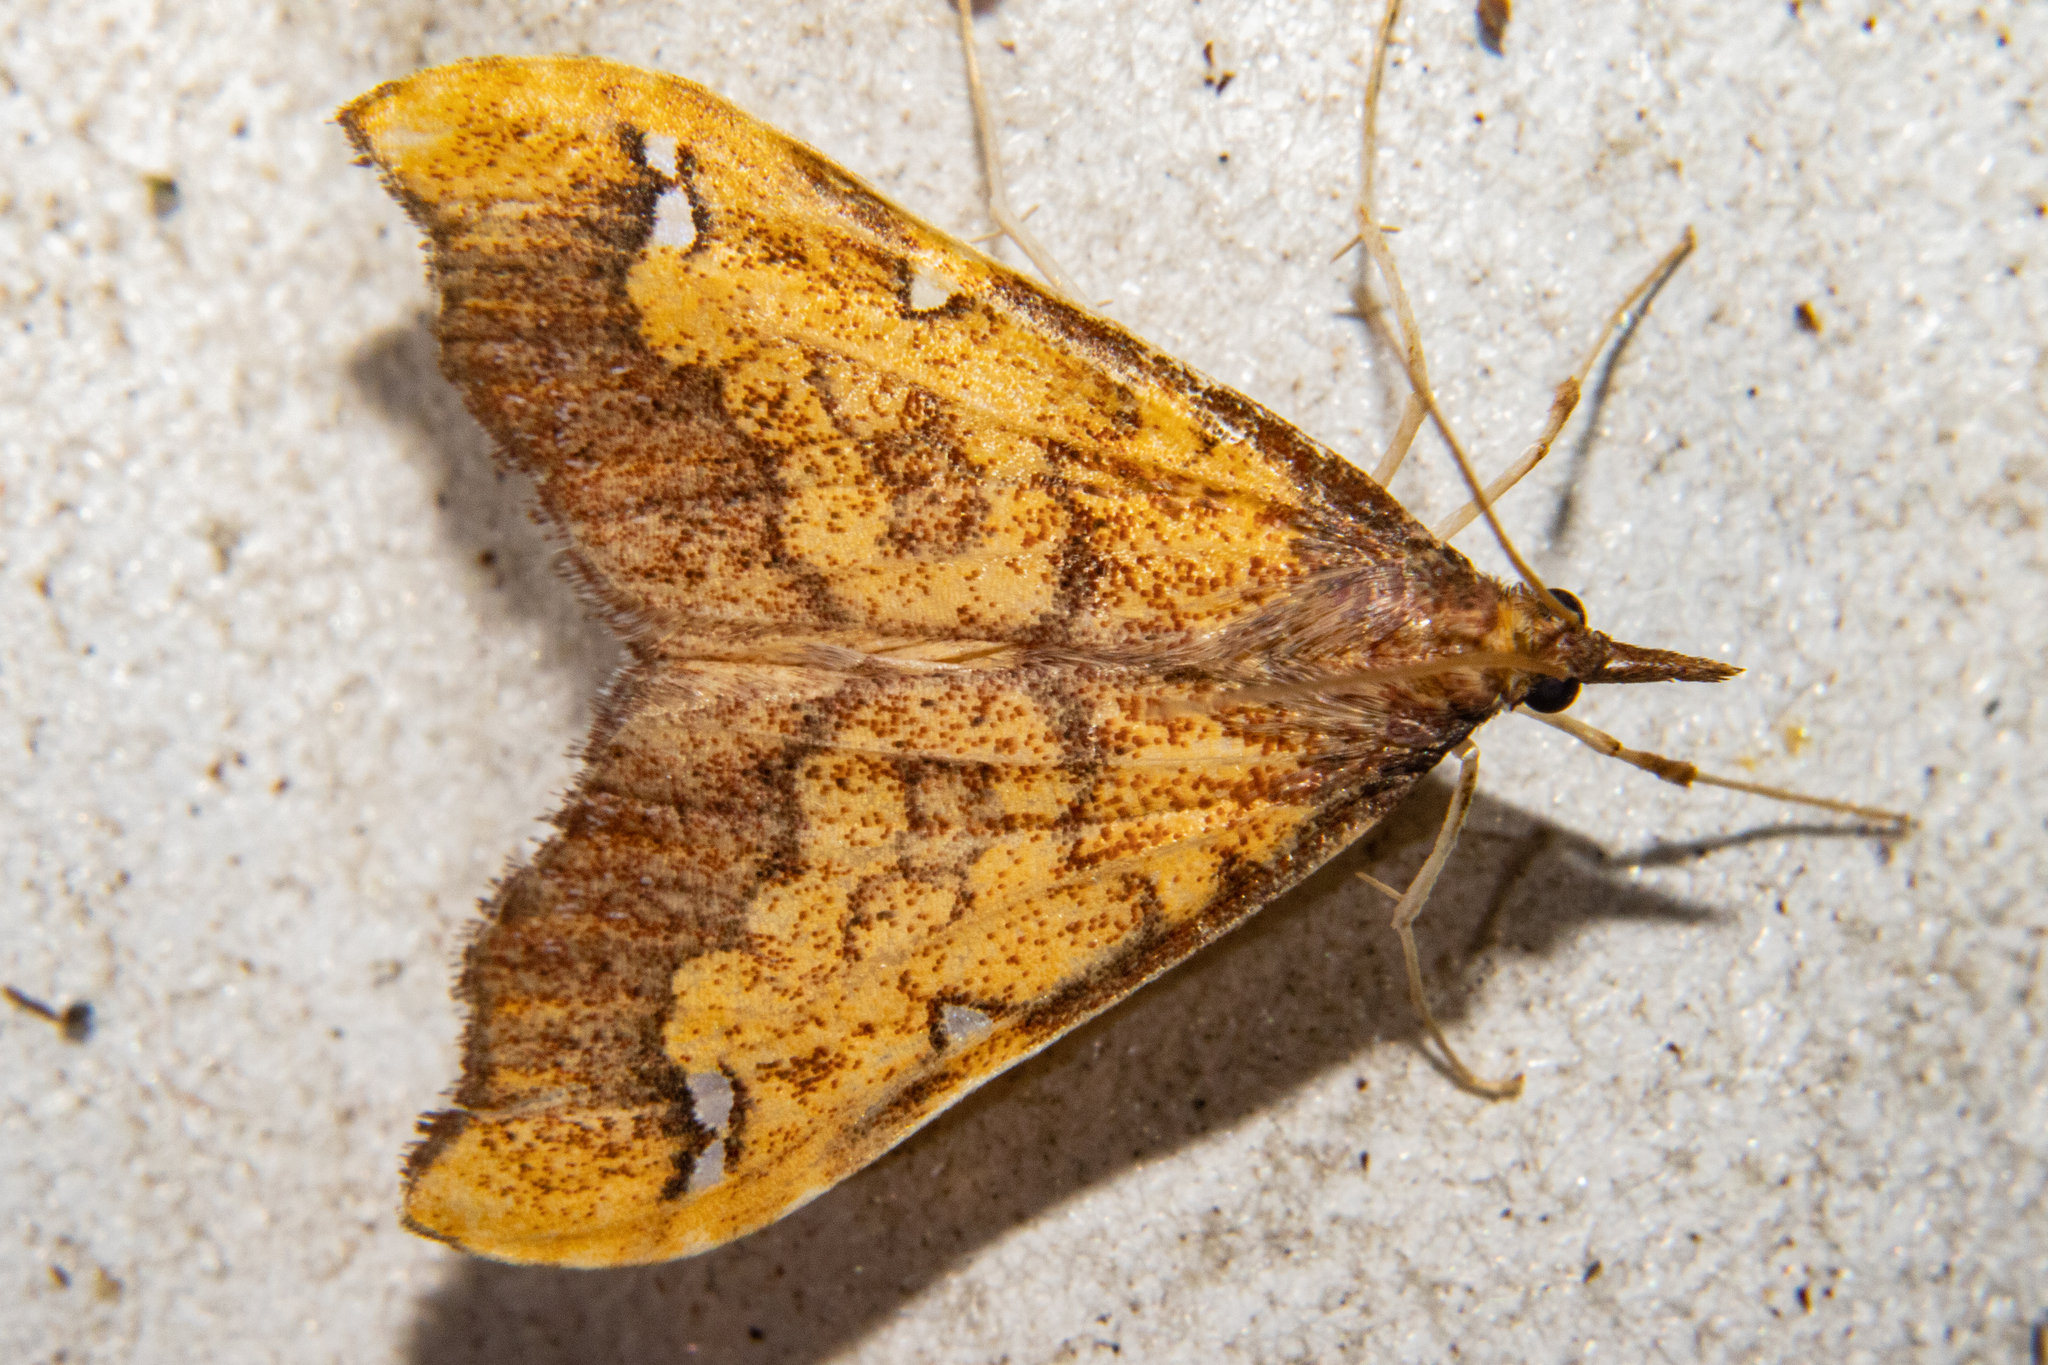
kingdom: Animalia
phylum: Arthropoda
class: Insecta
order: Lepidoptera
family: Crambidae
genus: Deana
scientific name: Deana hybreasalis
